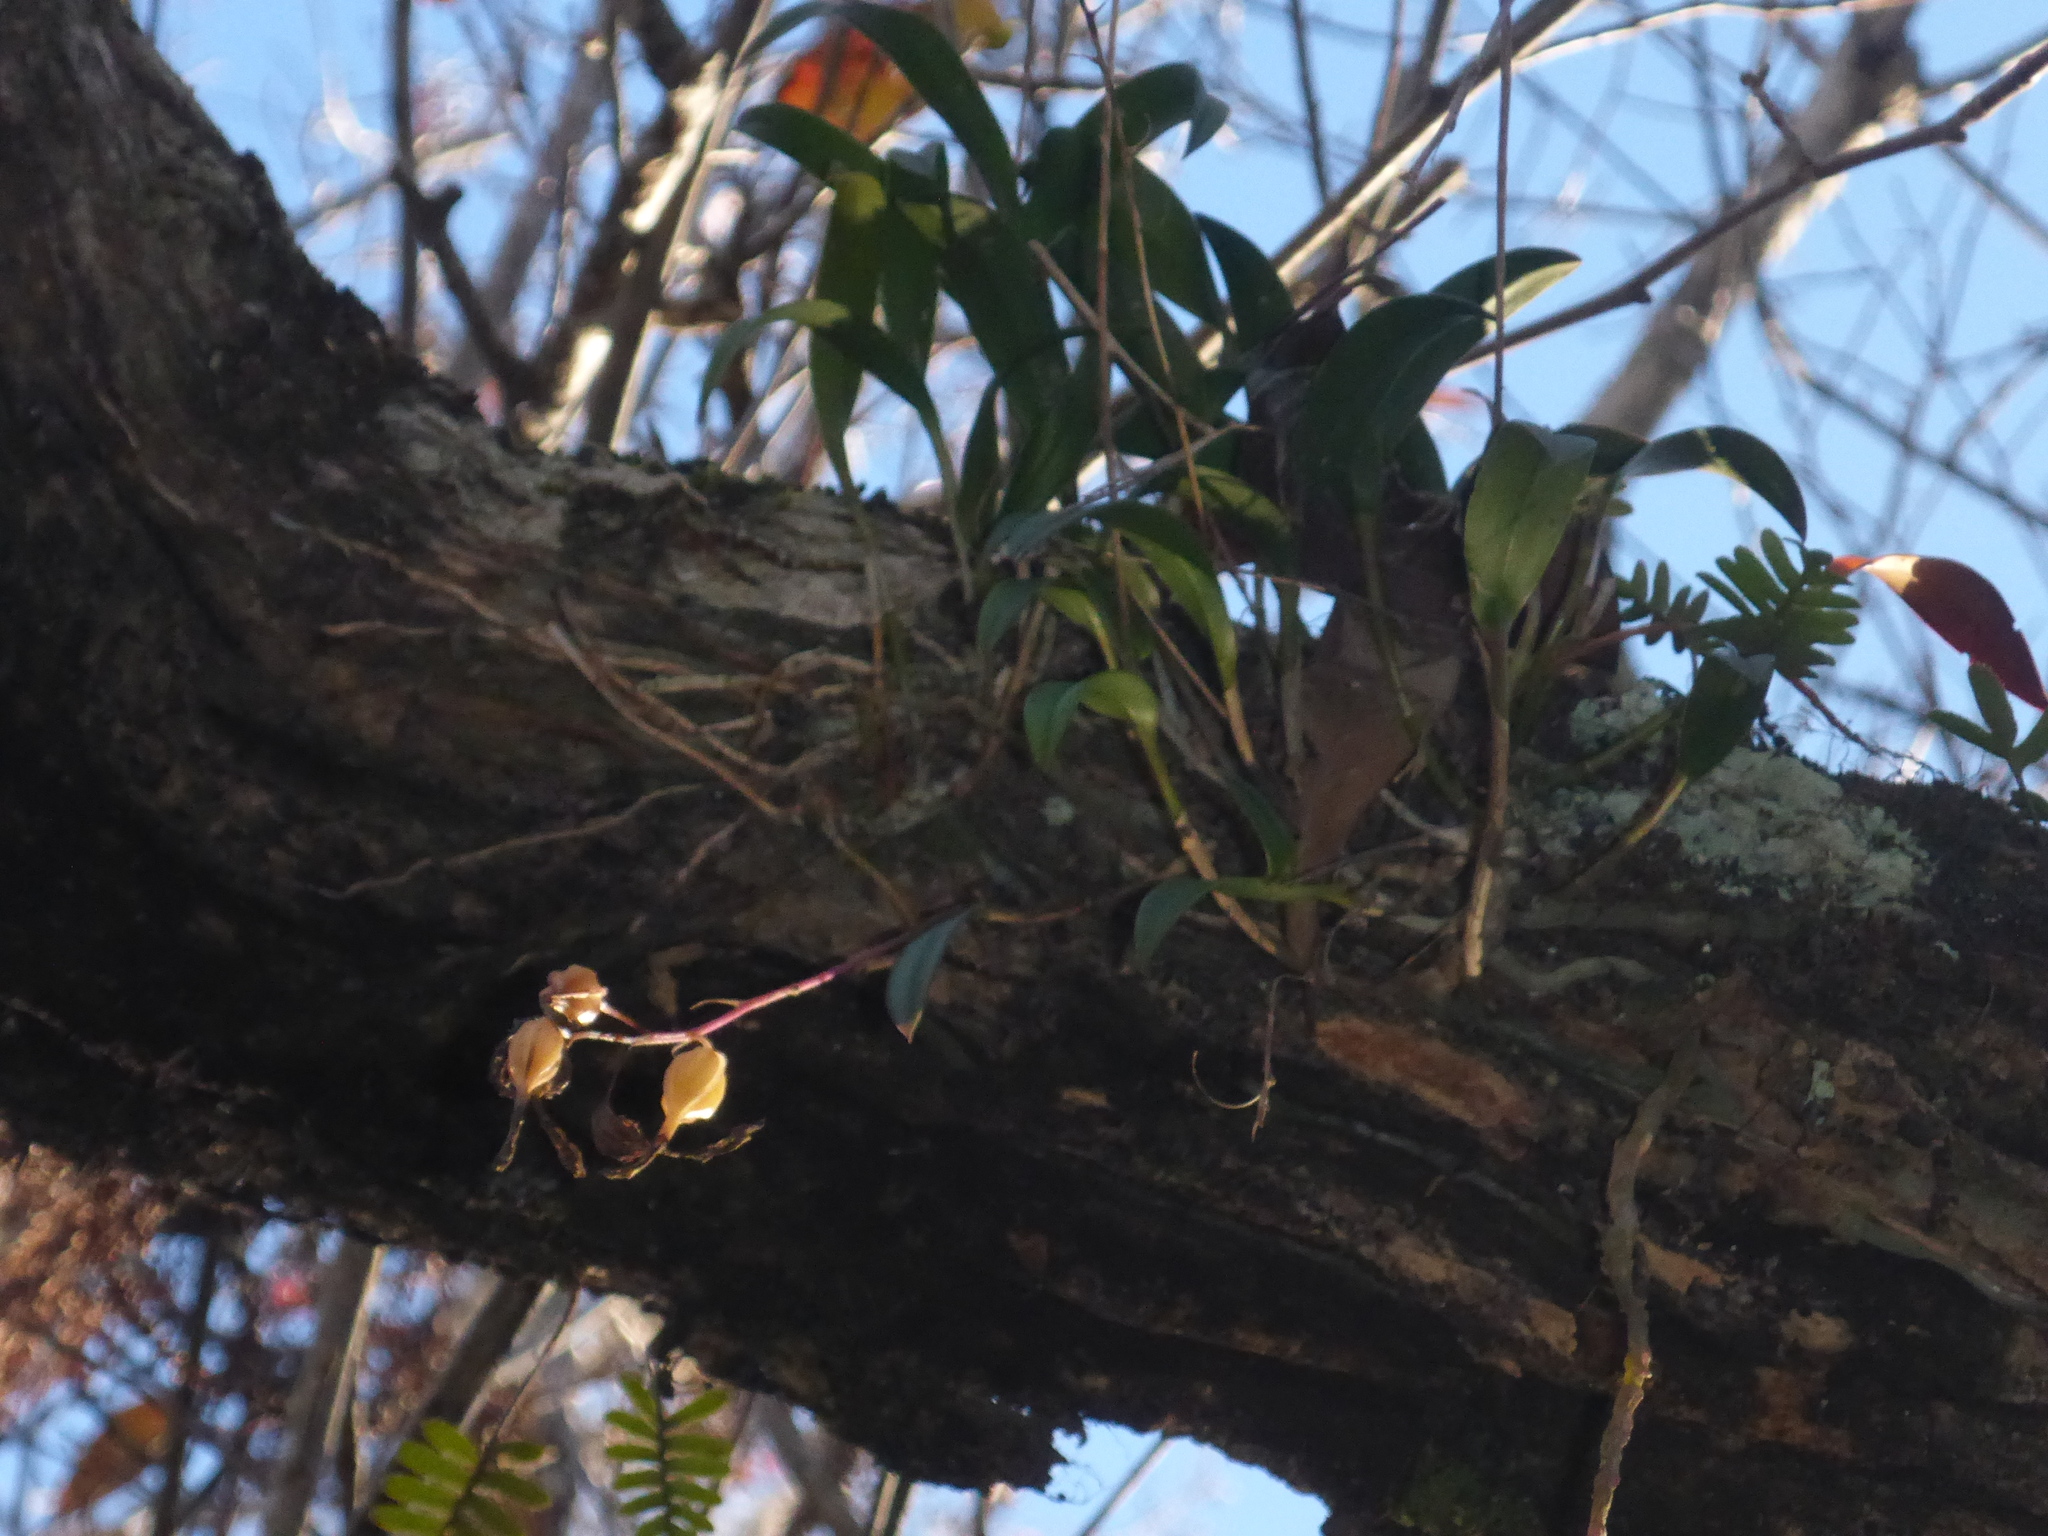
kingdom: Plantae
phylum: Tracheophyta
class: Liliopsida
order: Asparagales
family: Orchidaceae
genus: Epidendrum
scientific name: Epidendrum conopseum
